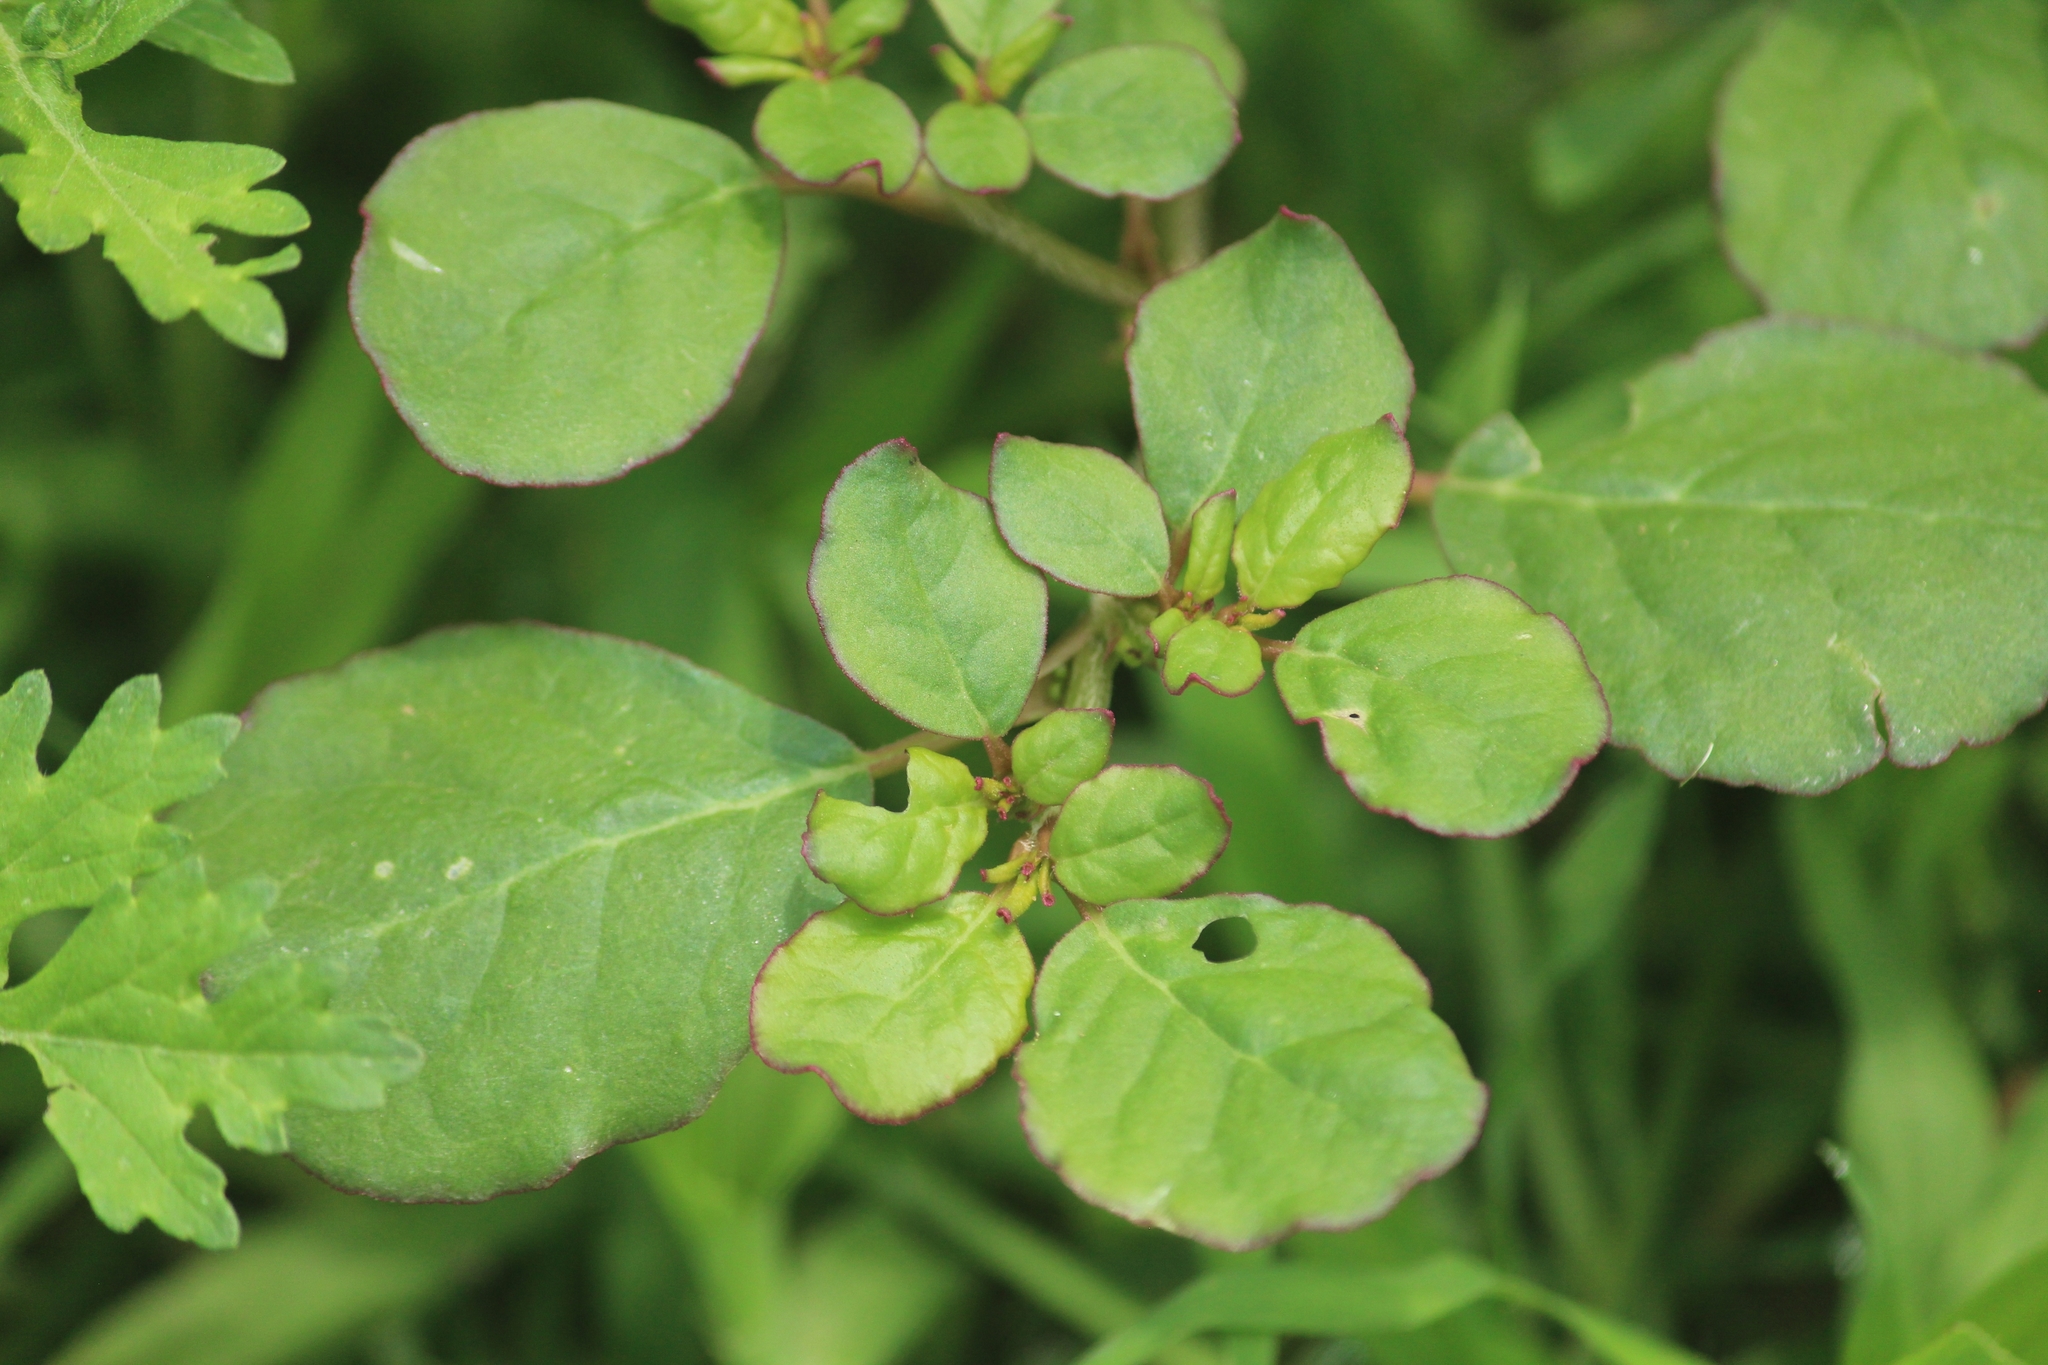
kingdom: Plantae
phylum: Tracheophyta
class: Magnoliopsida
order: Caryophyllales
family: Aizoaceae
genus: Trianthema
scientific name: Trianthema portulacastrum
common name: Desert horsepurslane
